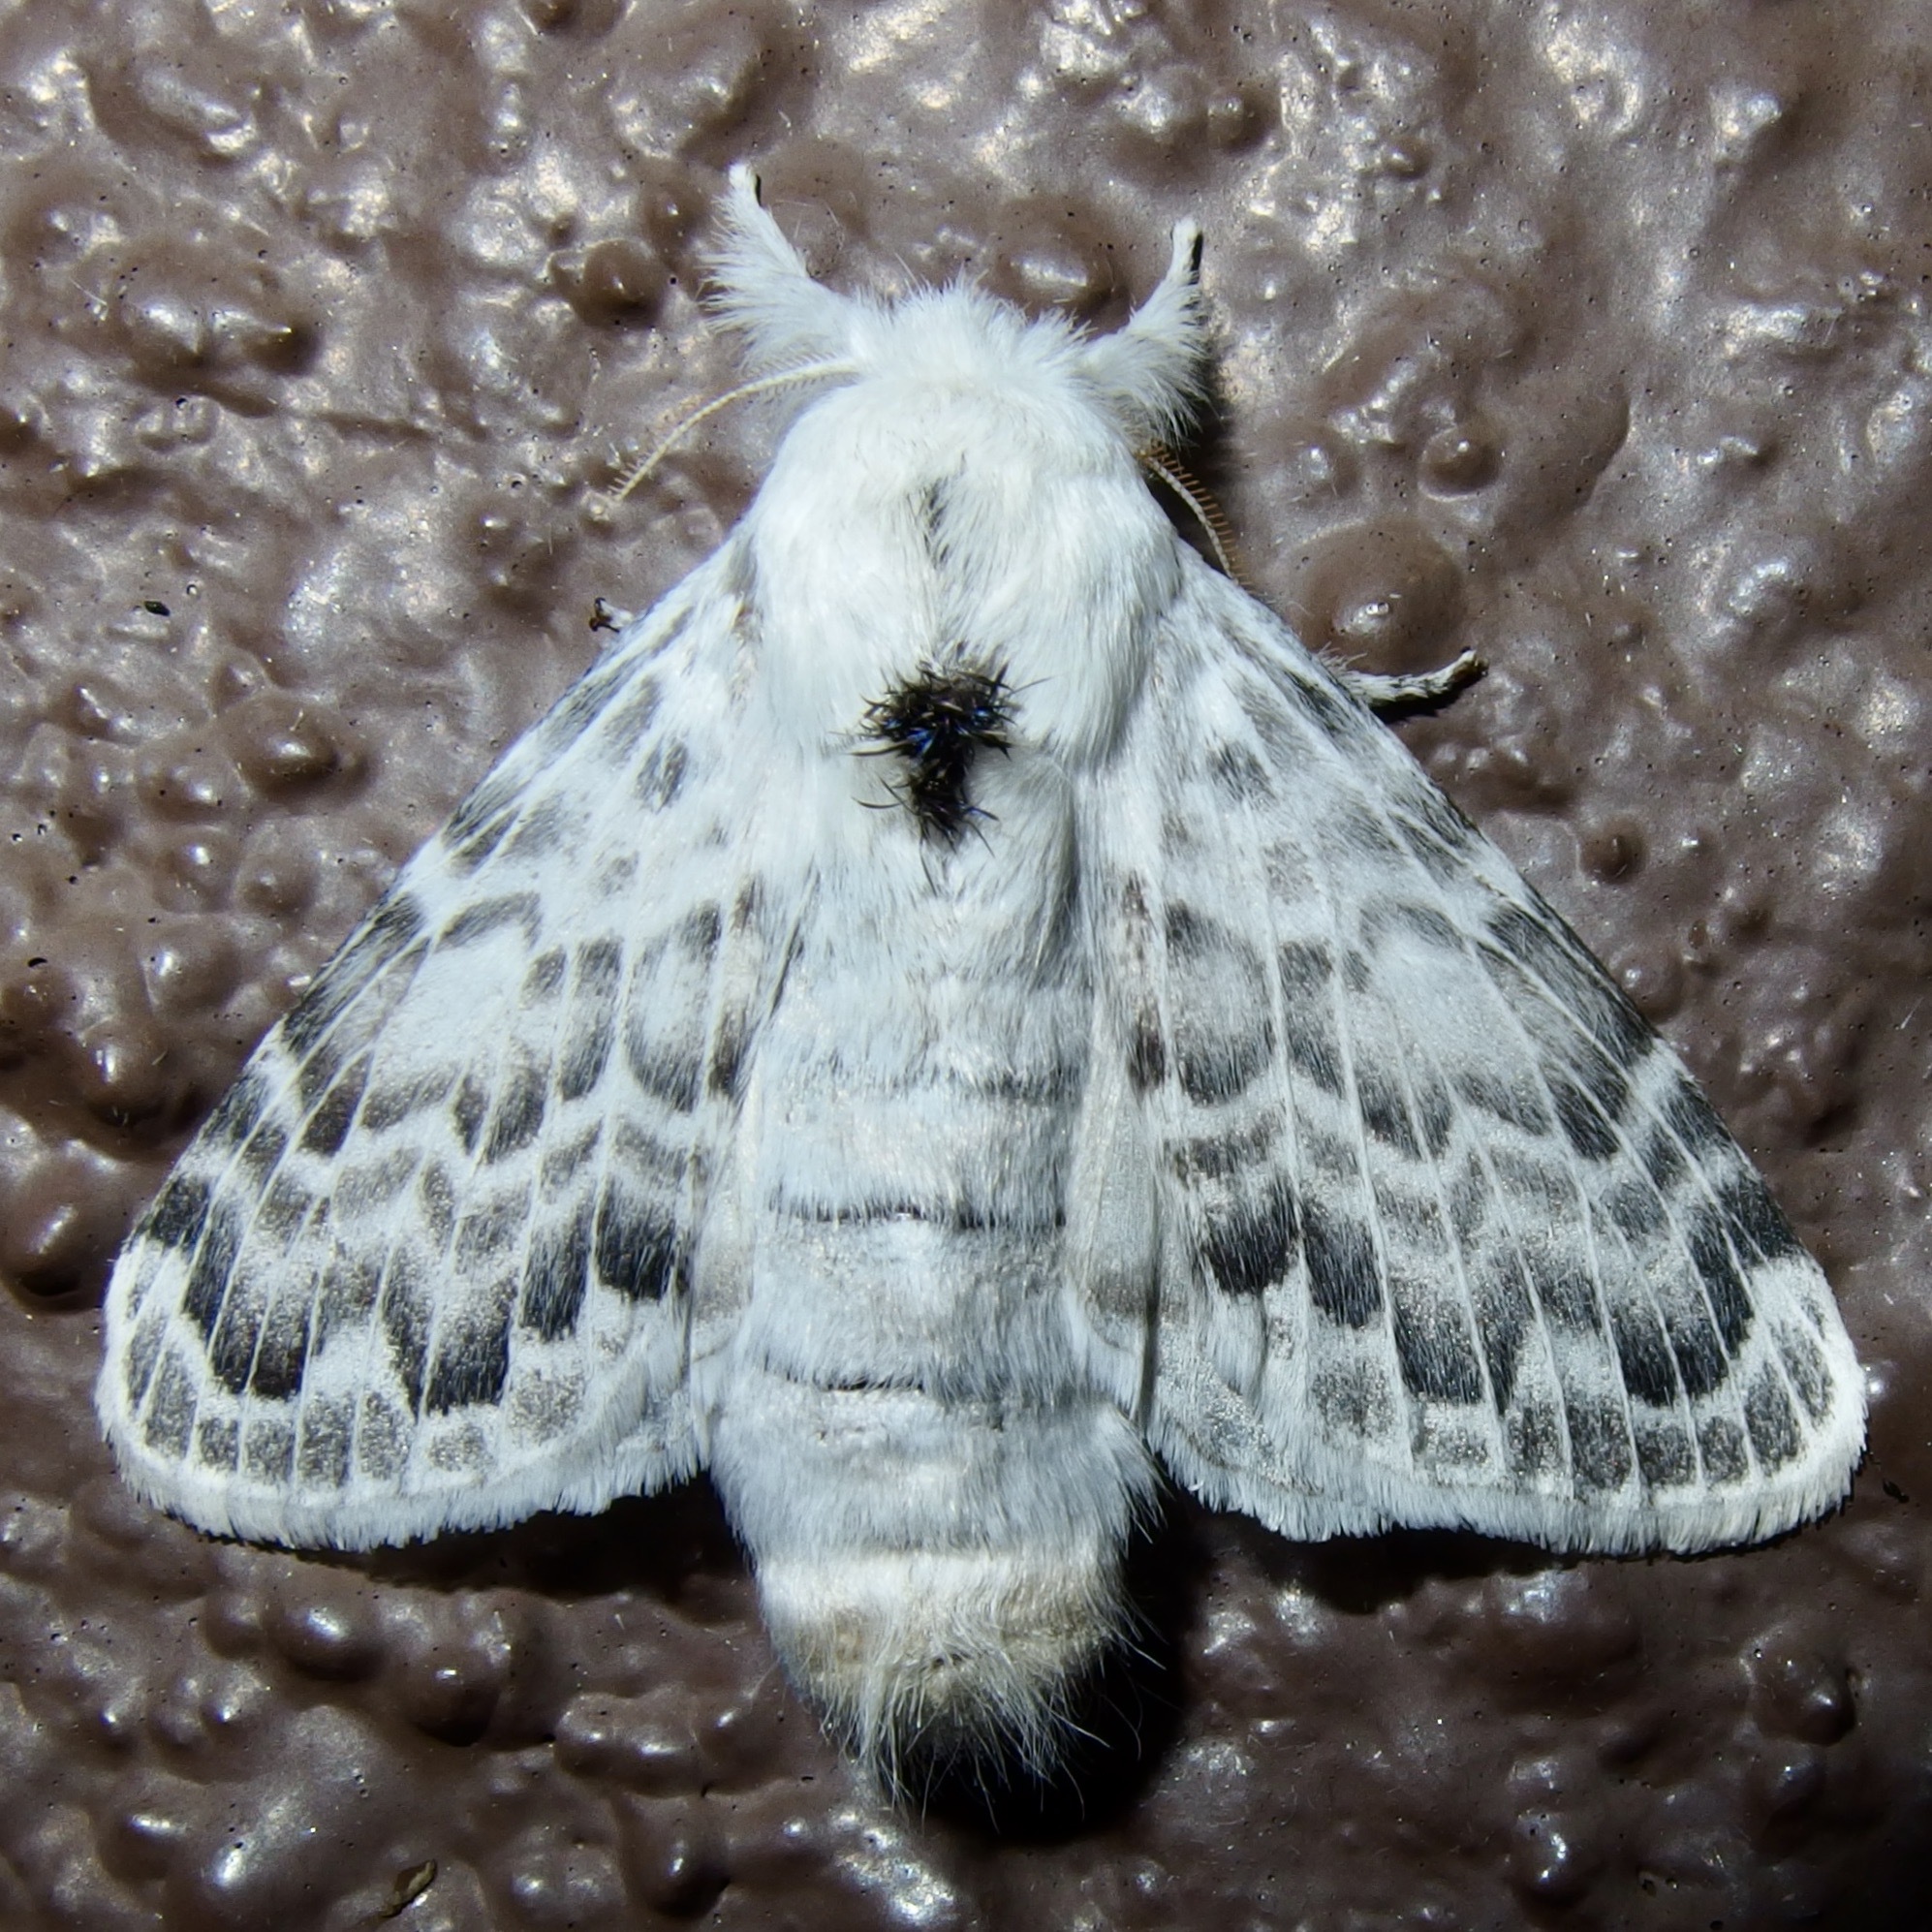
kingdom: Animalia
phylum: Arthropoda
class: Insecta
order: Lepidoptera
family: Lasiocampidae
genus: Apotolype
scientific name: Apotolype brevicrista
